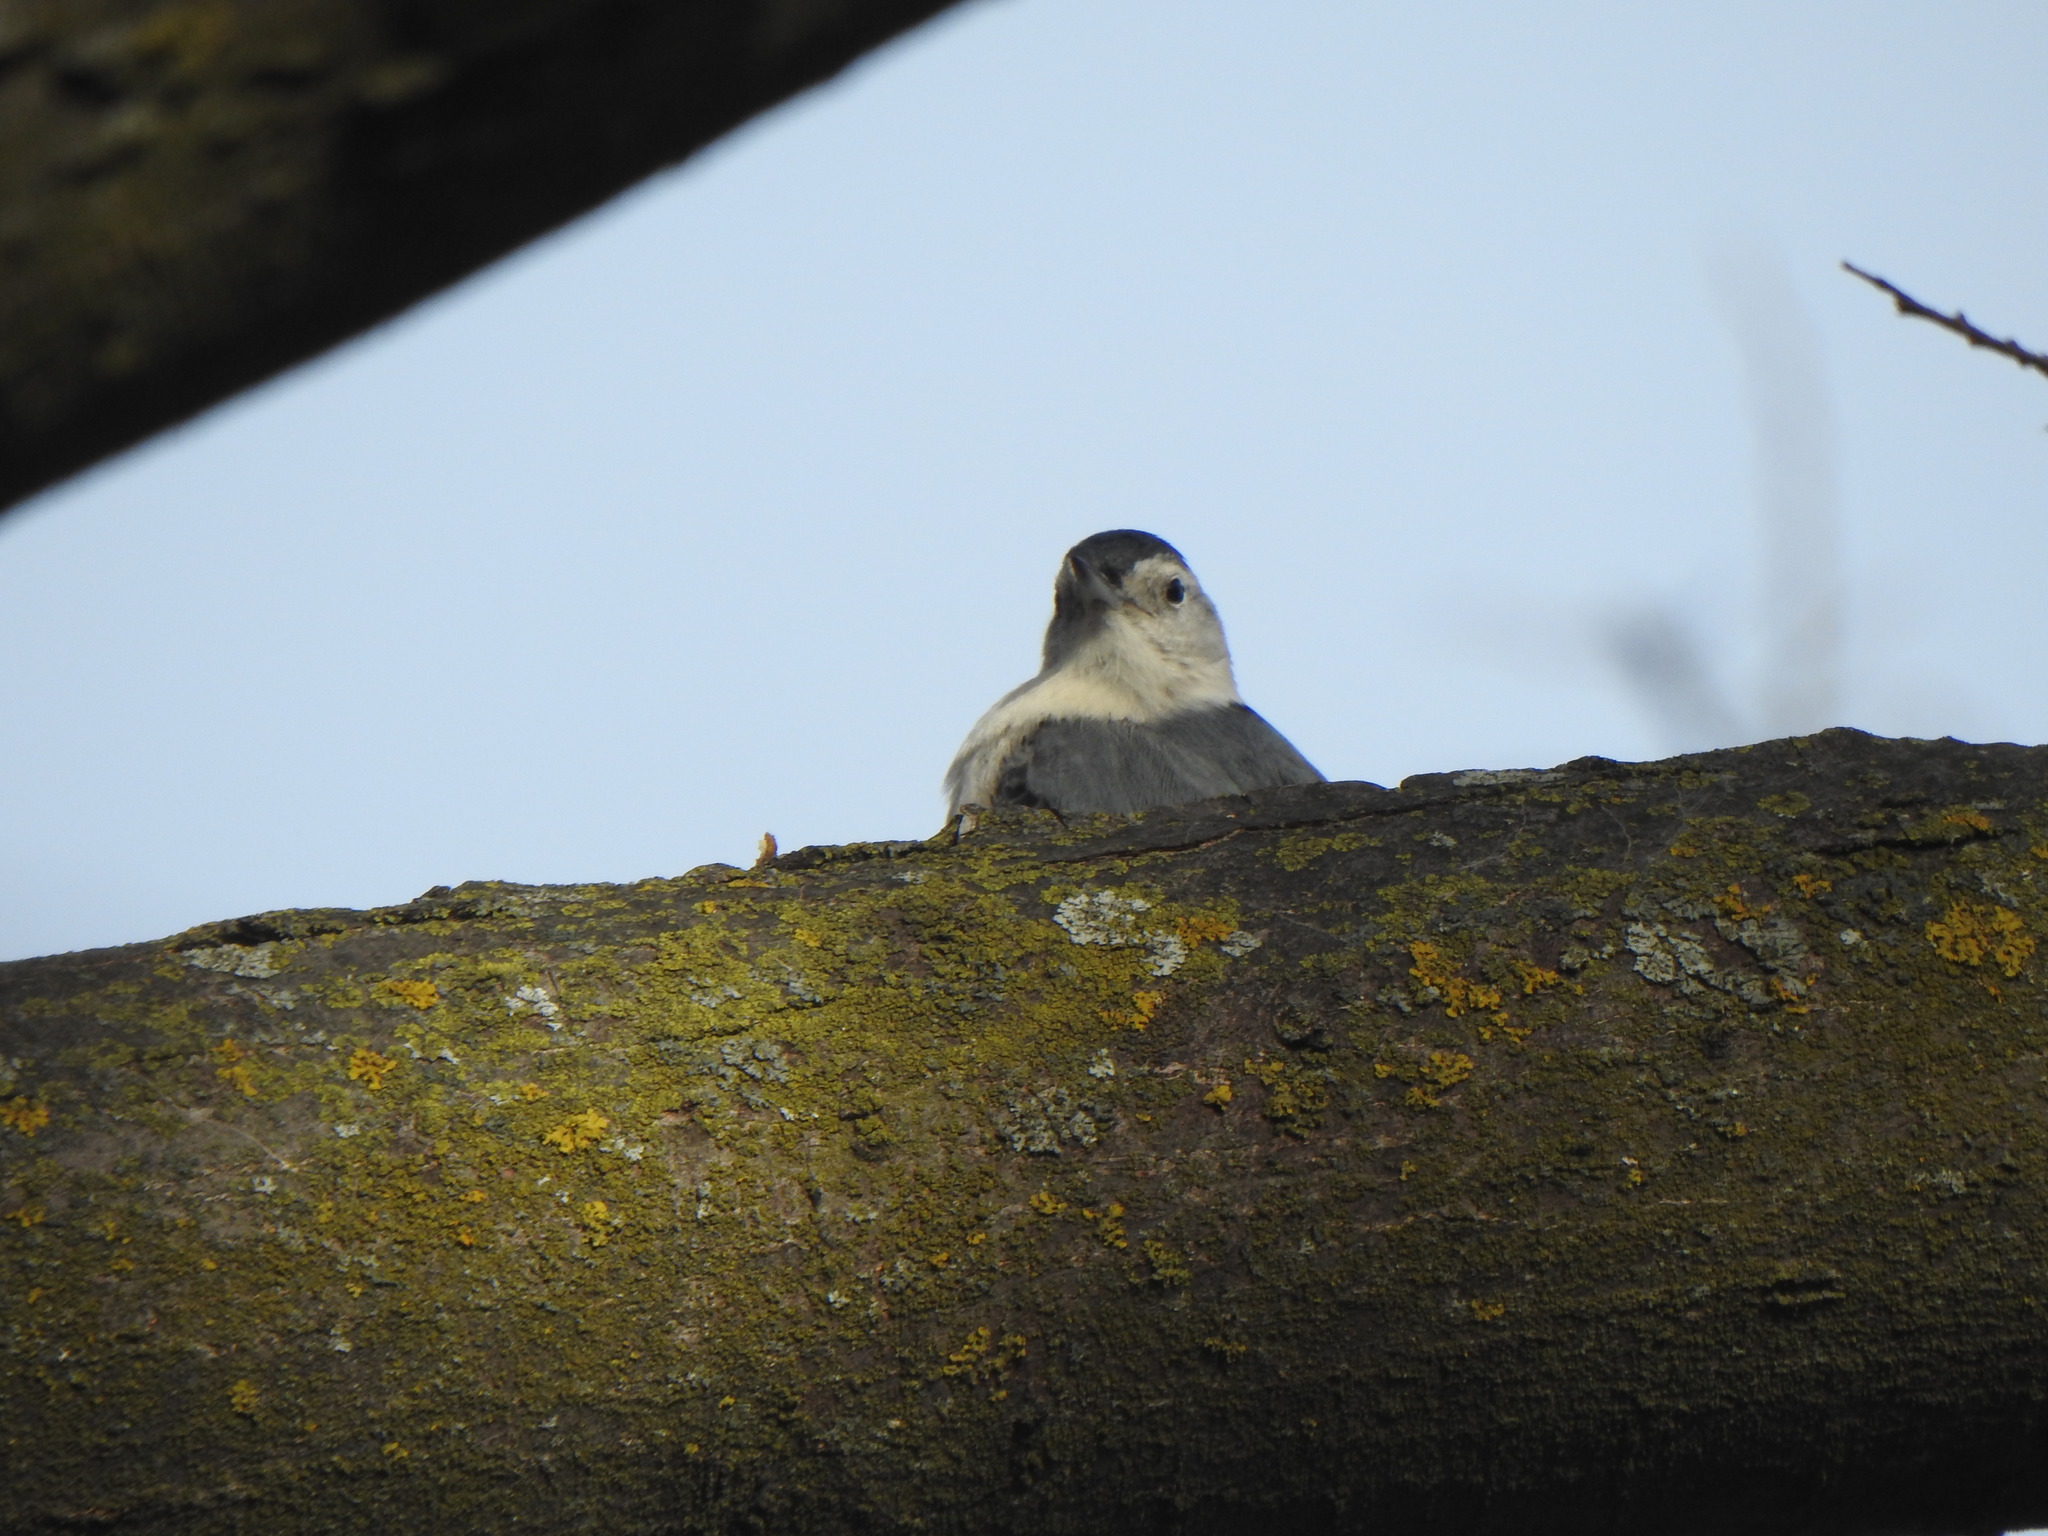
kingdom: Animalia
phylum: Chordata
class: Aves
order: Passeriformes
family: Sittidae
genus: Sitta
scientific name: Sitta carolinensis
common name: White-breasted nuthatch
